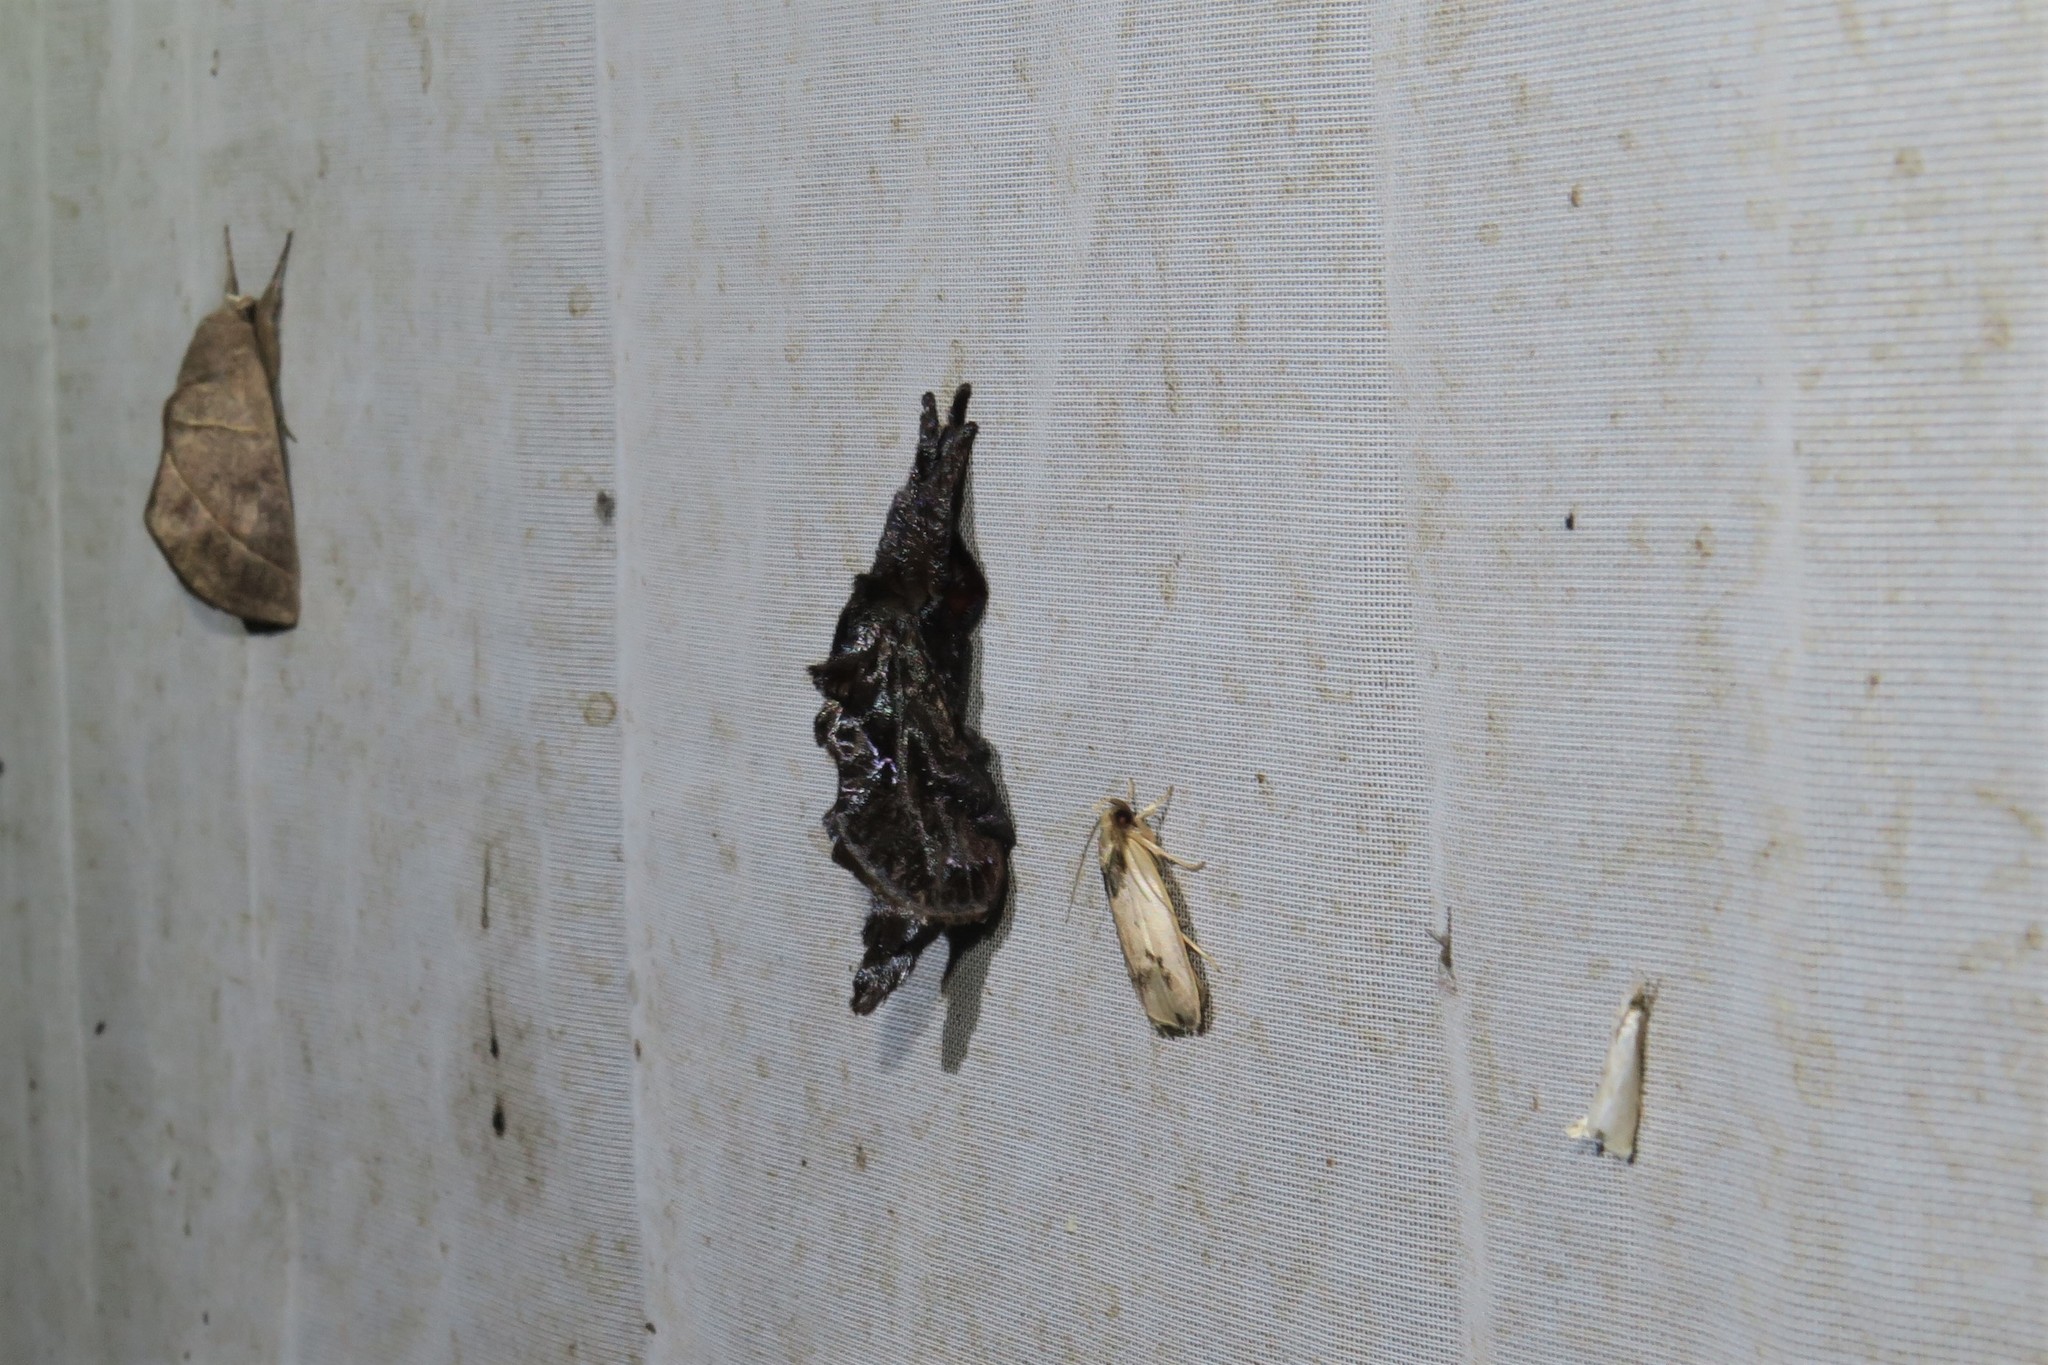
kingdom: Animalia
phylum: Arthropoda
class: Insecta
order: Lepidoptera
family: Limacodidae
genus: Sibine
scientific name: Sibine nesea
